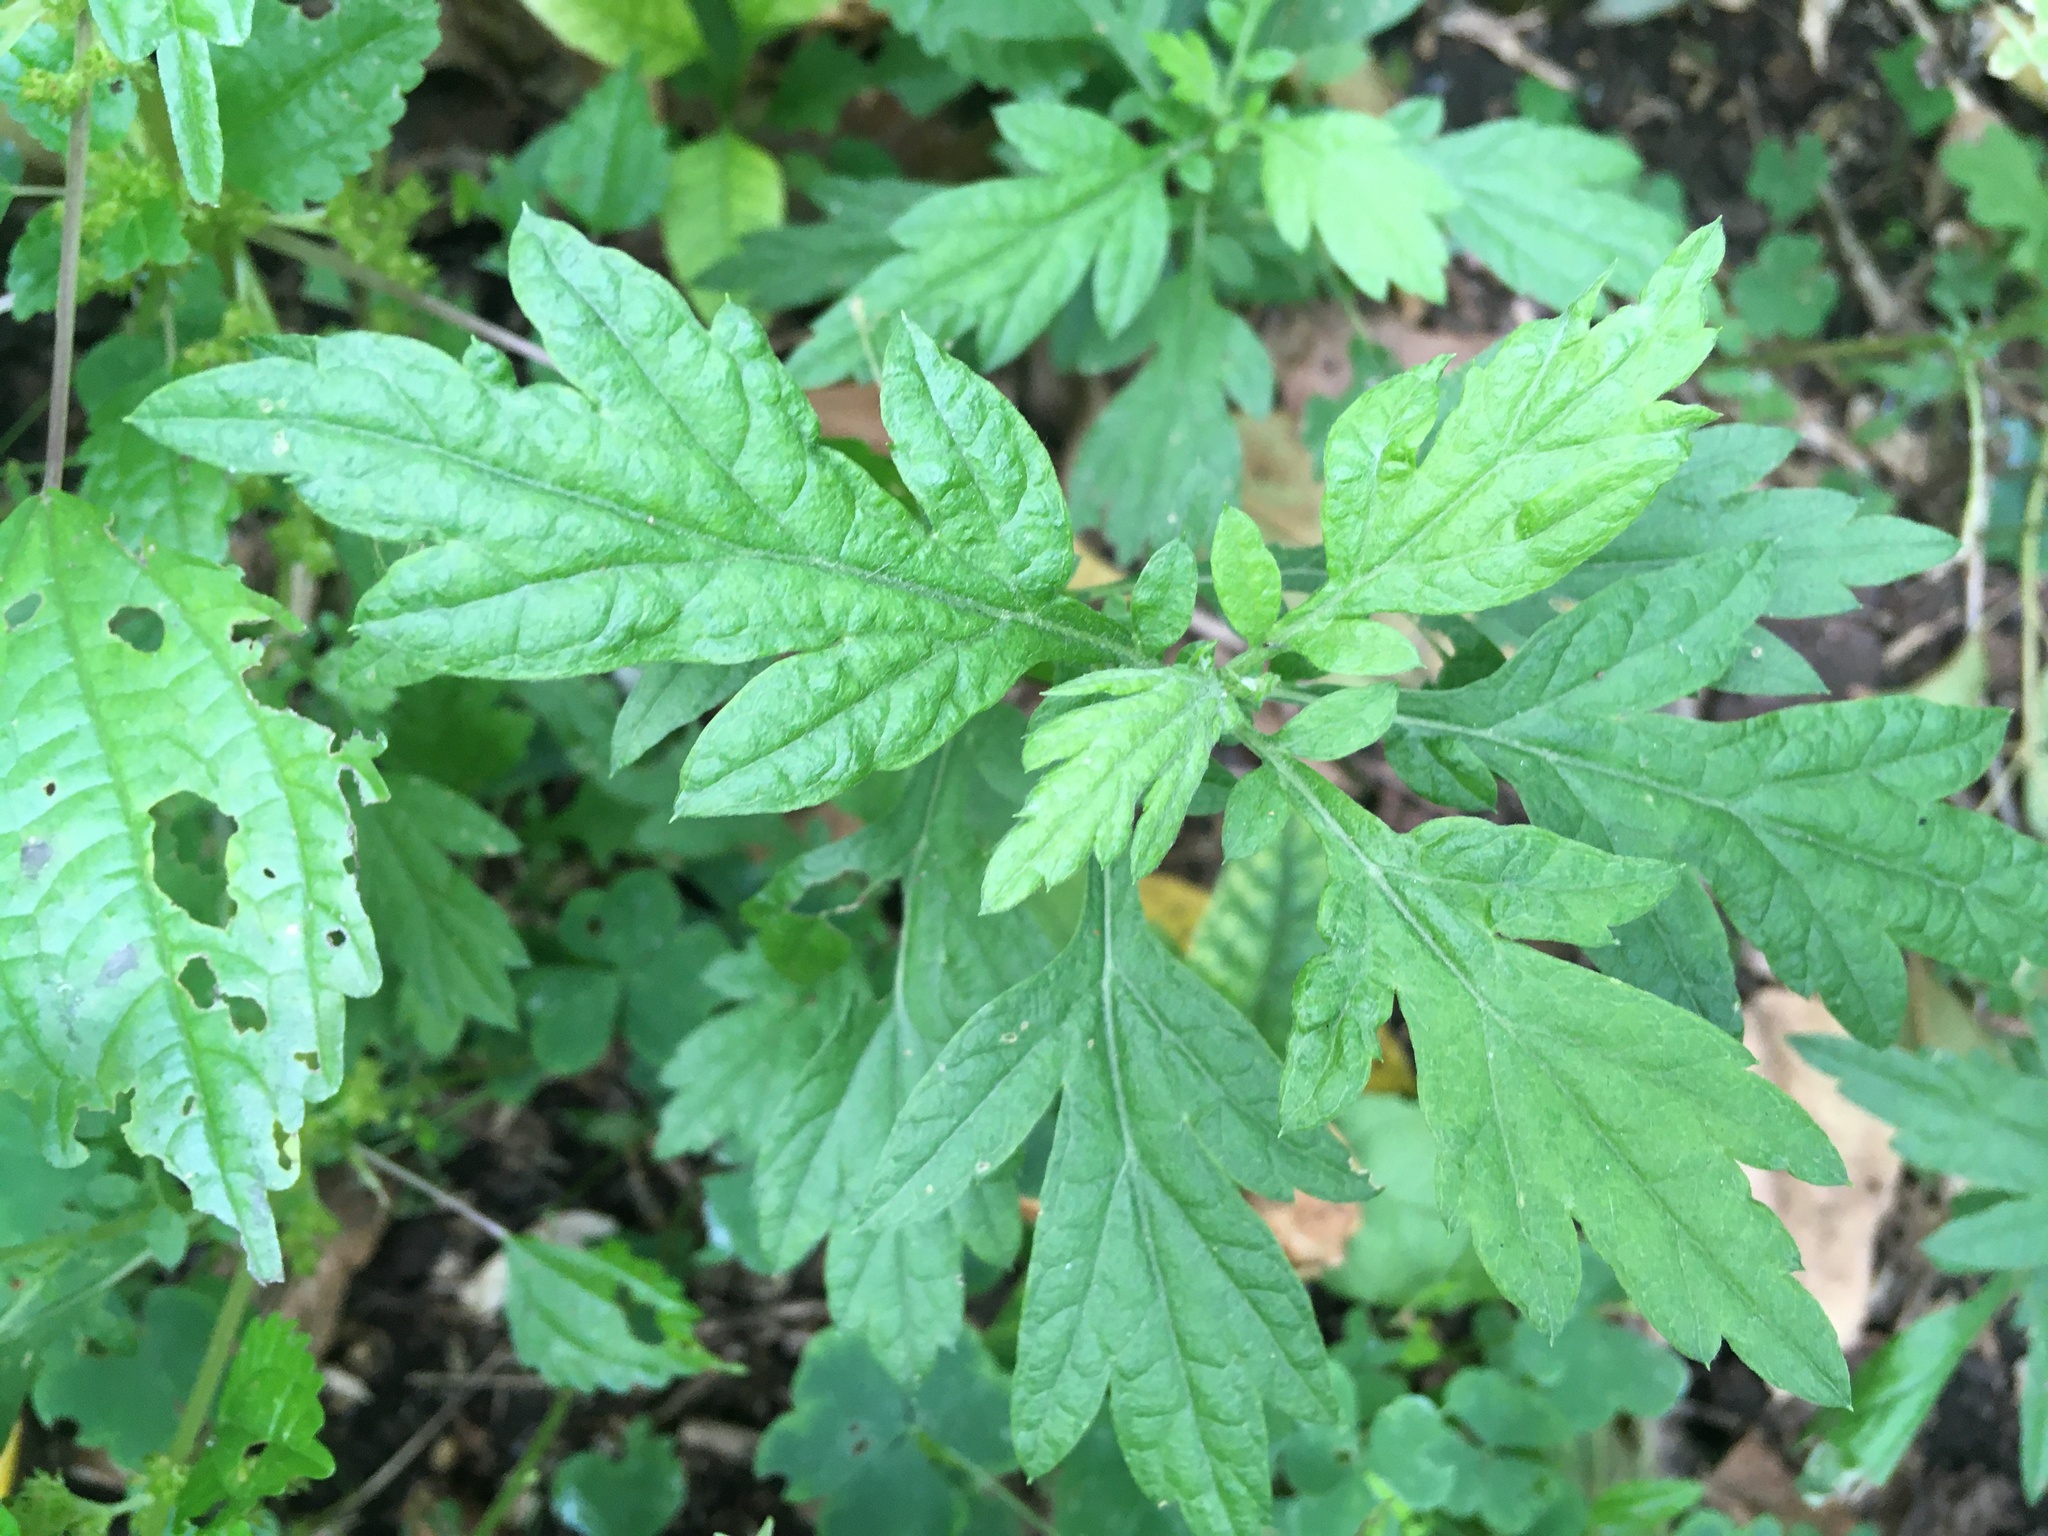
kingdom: Plantae
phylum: Tracheophyta
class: Magnoliopsida
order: Asterales
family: Asteraceae
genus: Artemisia
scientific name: Artemisia vulgaris
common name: Mugwort
